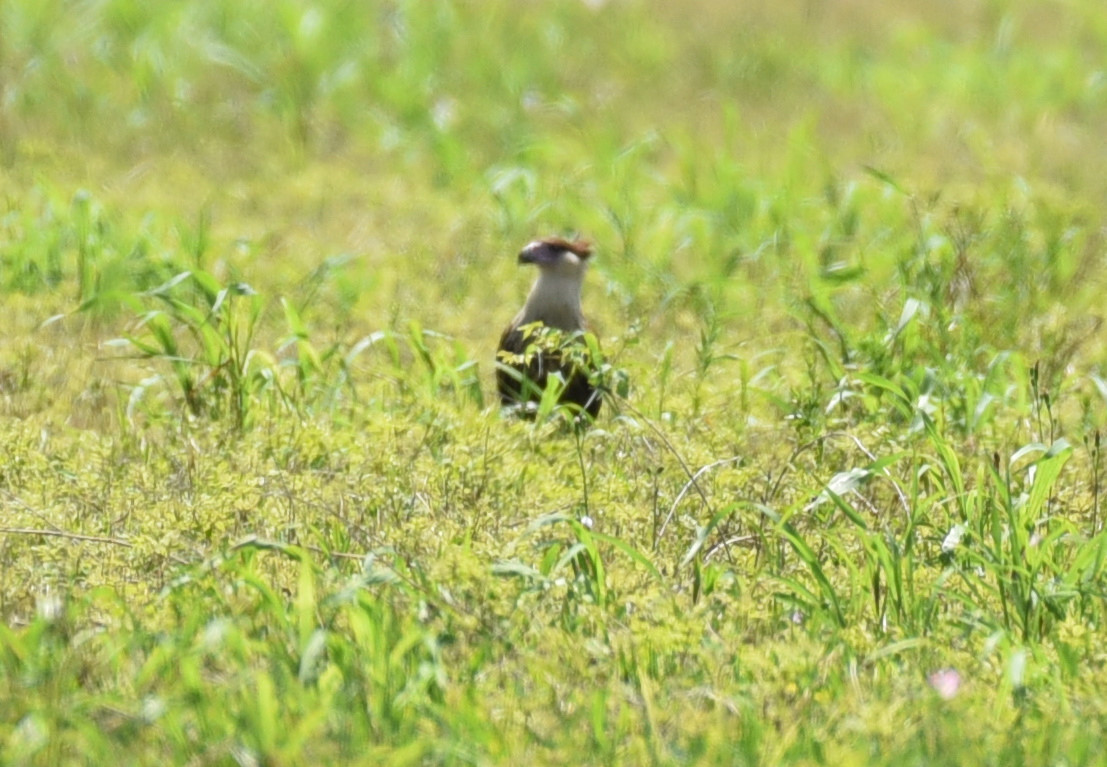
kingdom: Animalia
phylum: Chordata
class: Aves
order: Falconiformes
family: Falconidae
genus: Caracara
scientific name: Caracara plancus
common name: Southern caracara
